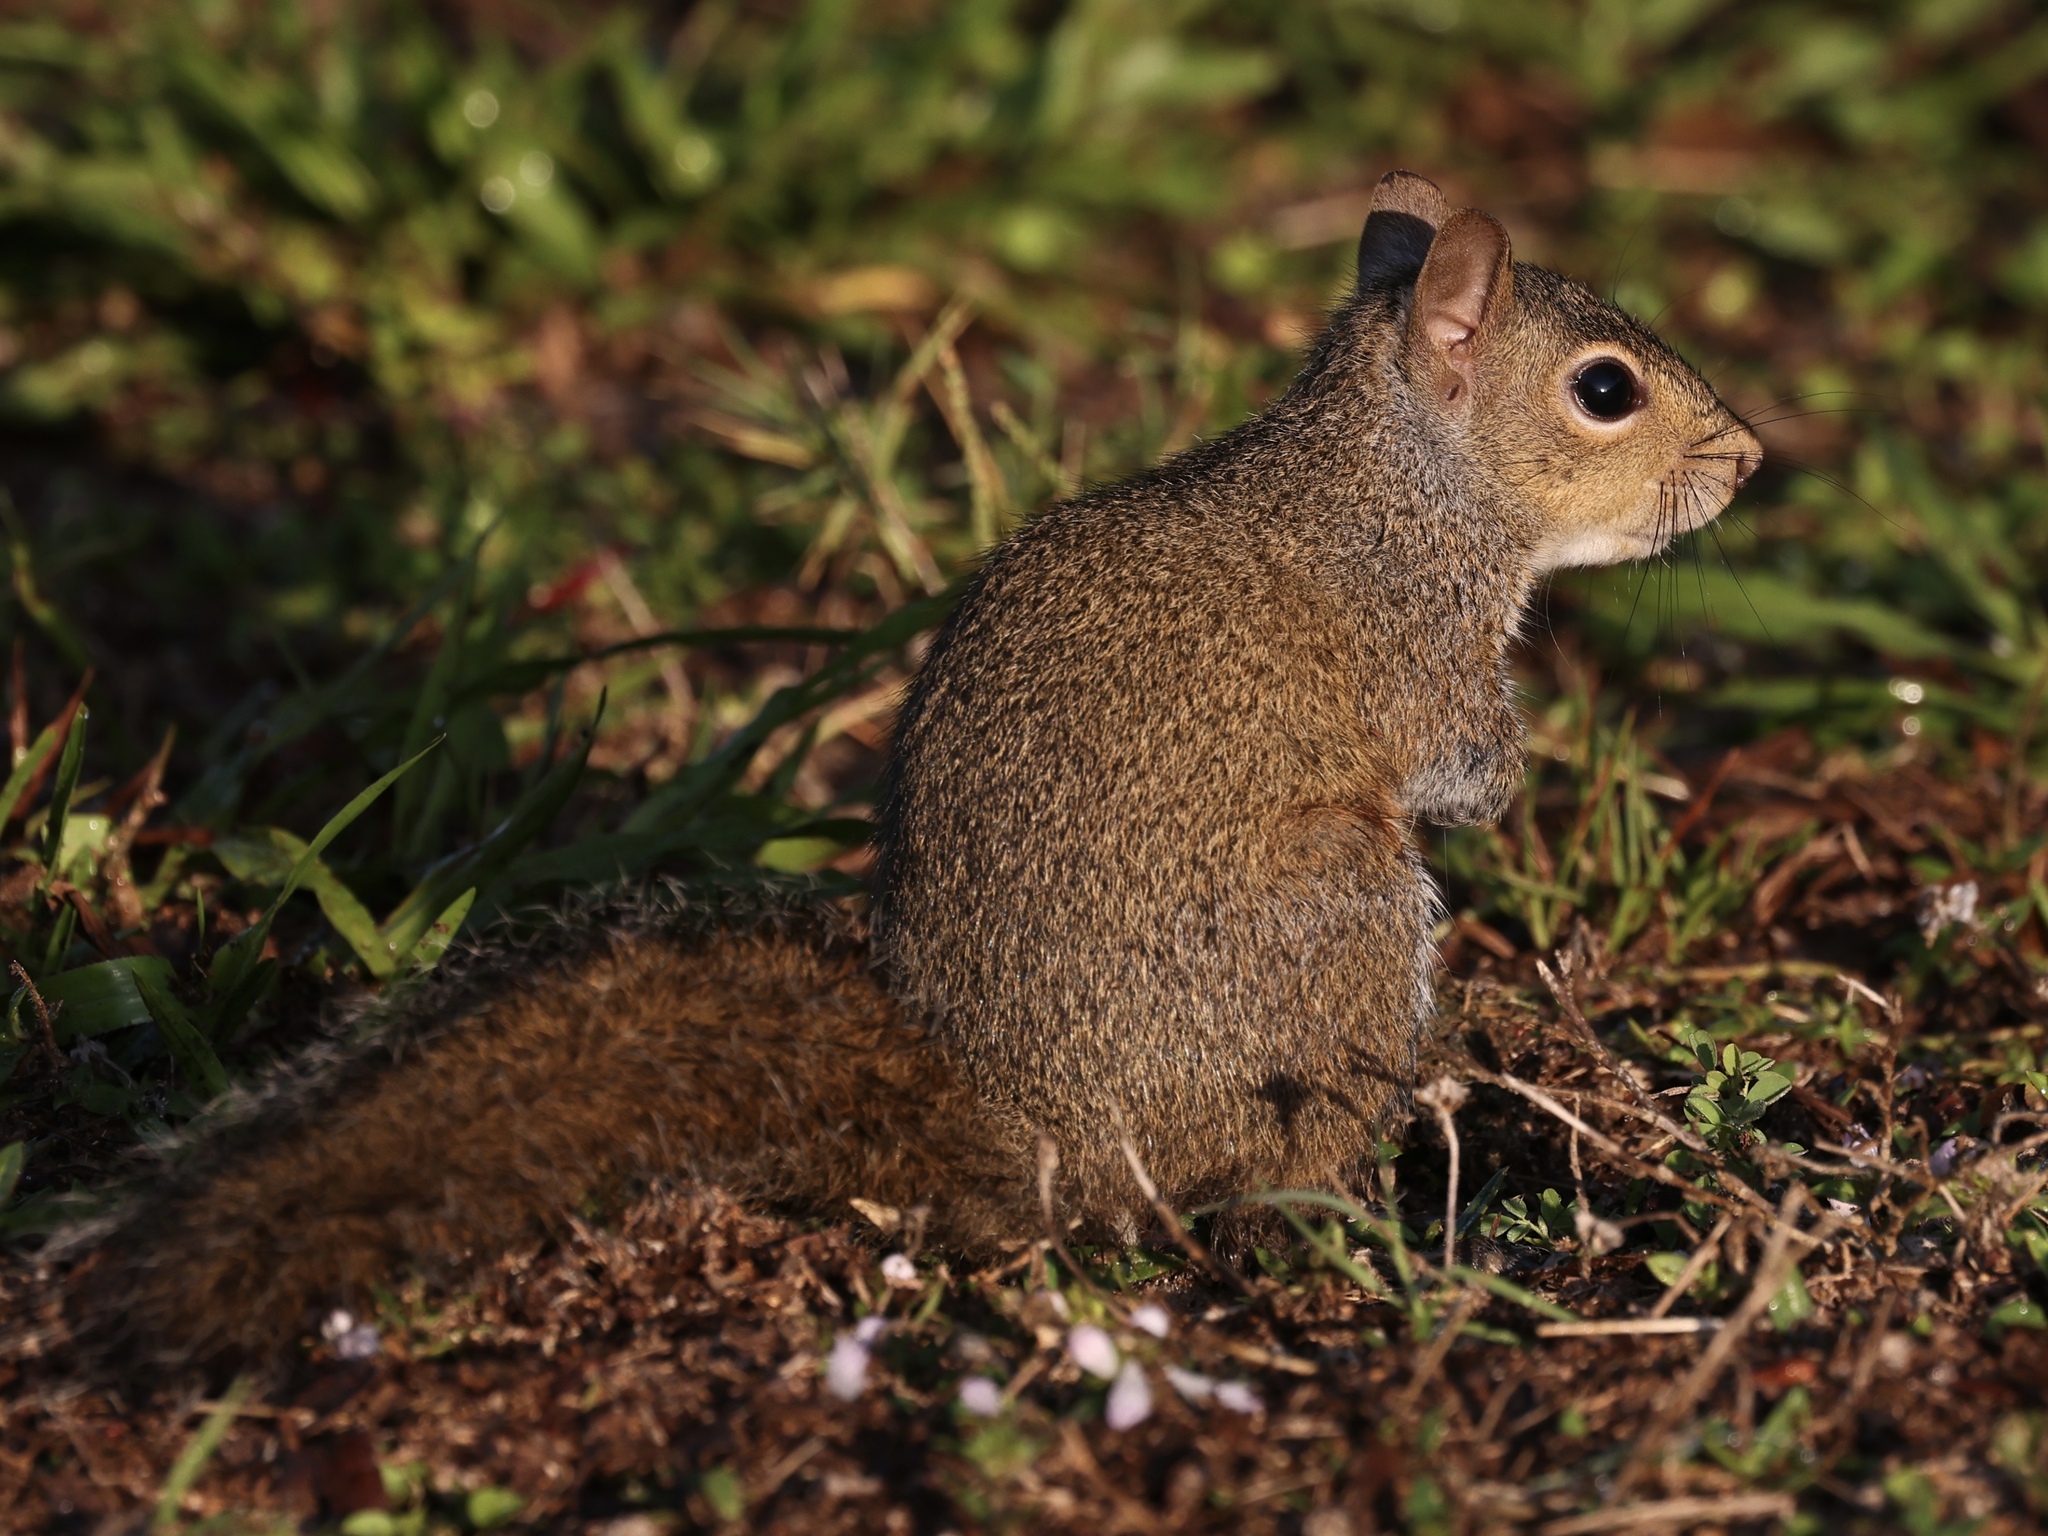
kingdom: Animalia
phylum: Chordata
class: Mammalia
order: Rodentia
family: Sciuridae
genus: Sciurus
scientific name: Sciurus carolinensis
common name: Eastern gray squirrel
